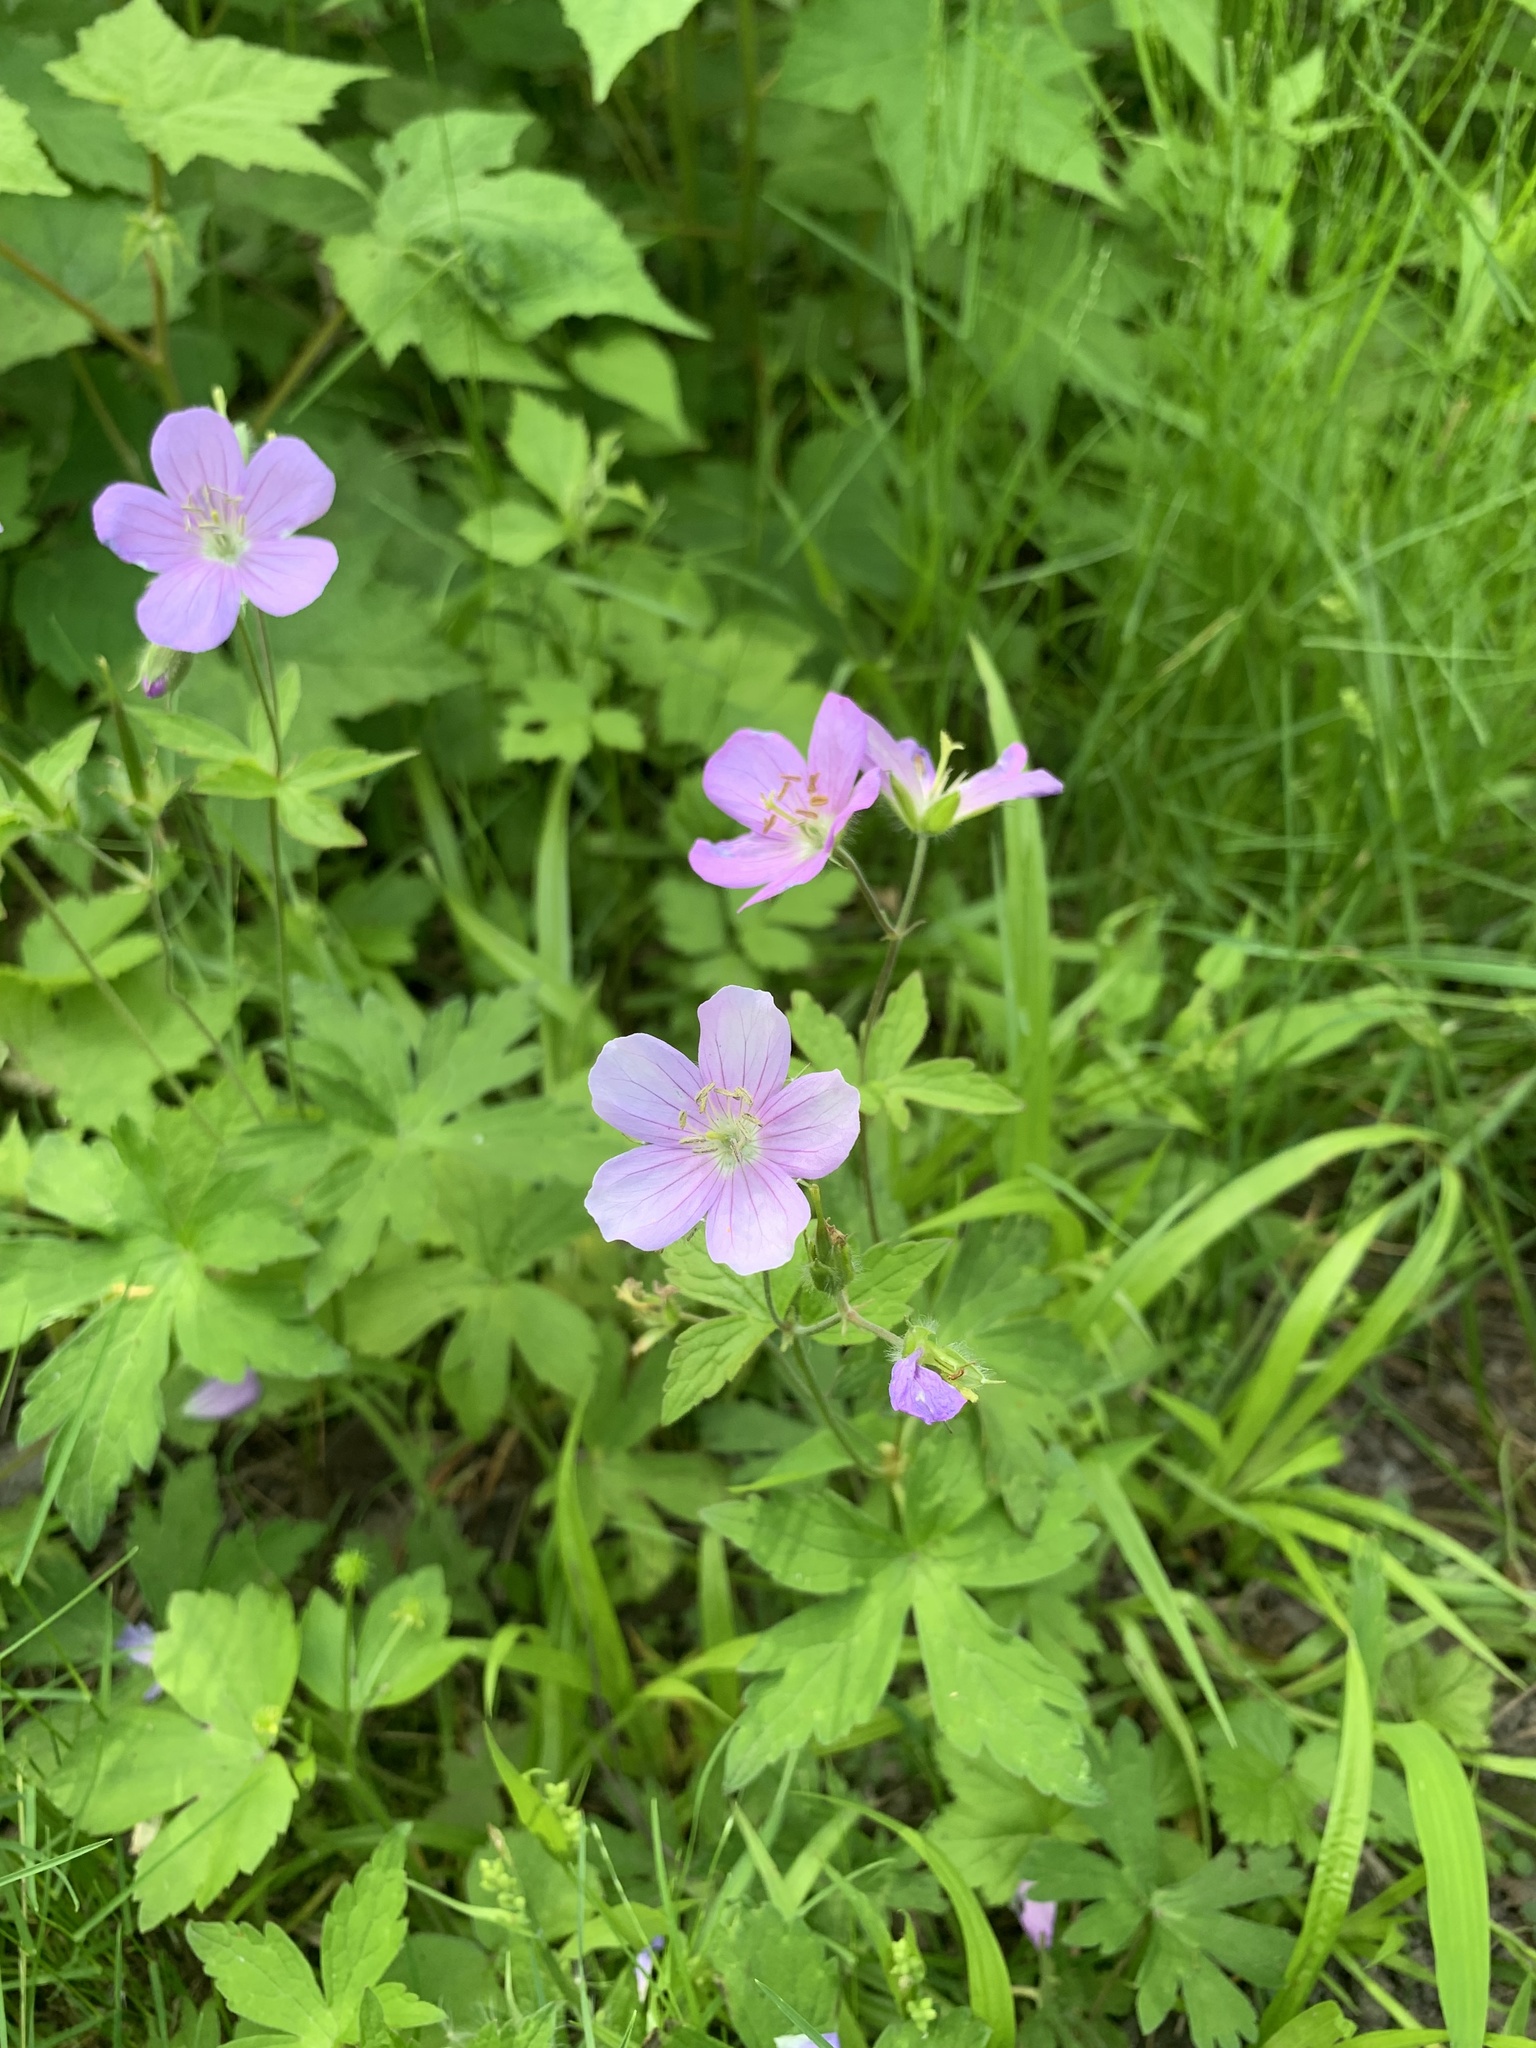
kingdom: Plantae
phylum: Tracheophyta
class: Magnoliopsida
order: Geraniales
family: Geraniaceae
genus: Geranium
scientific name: Geranium maculatum
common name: Spotted geranium
